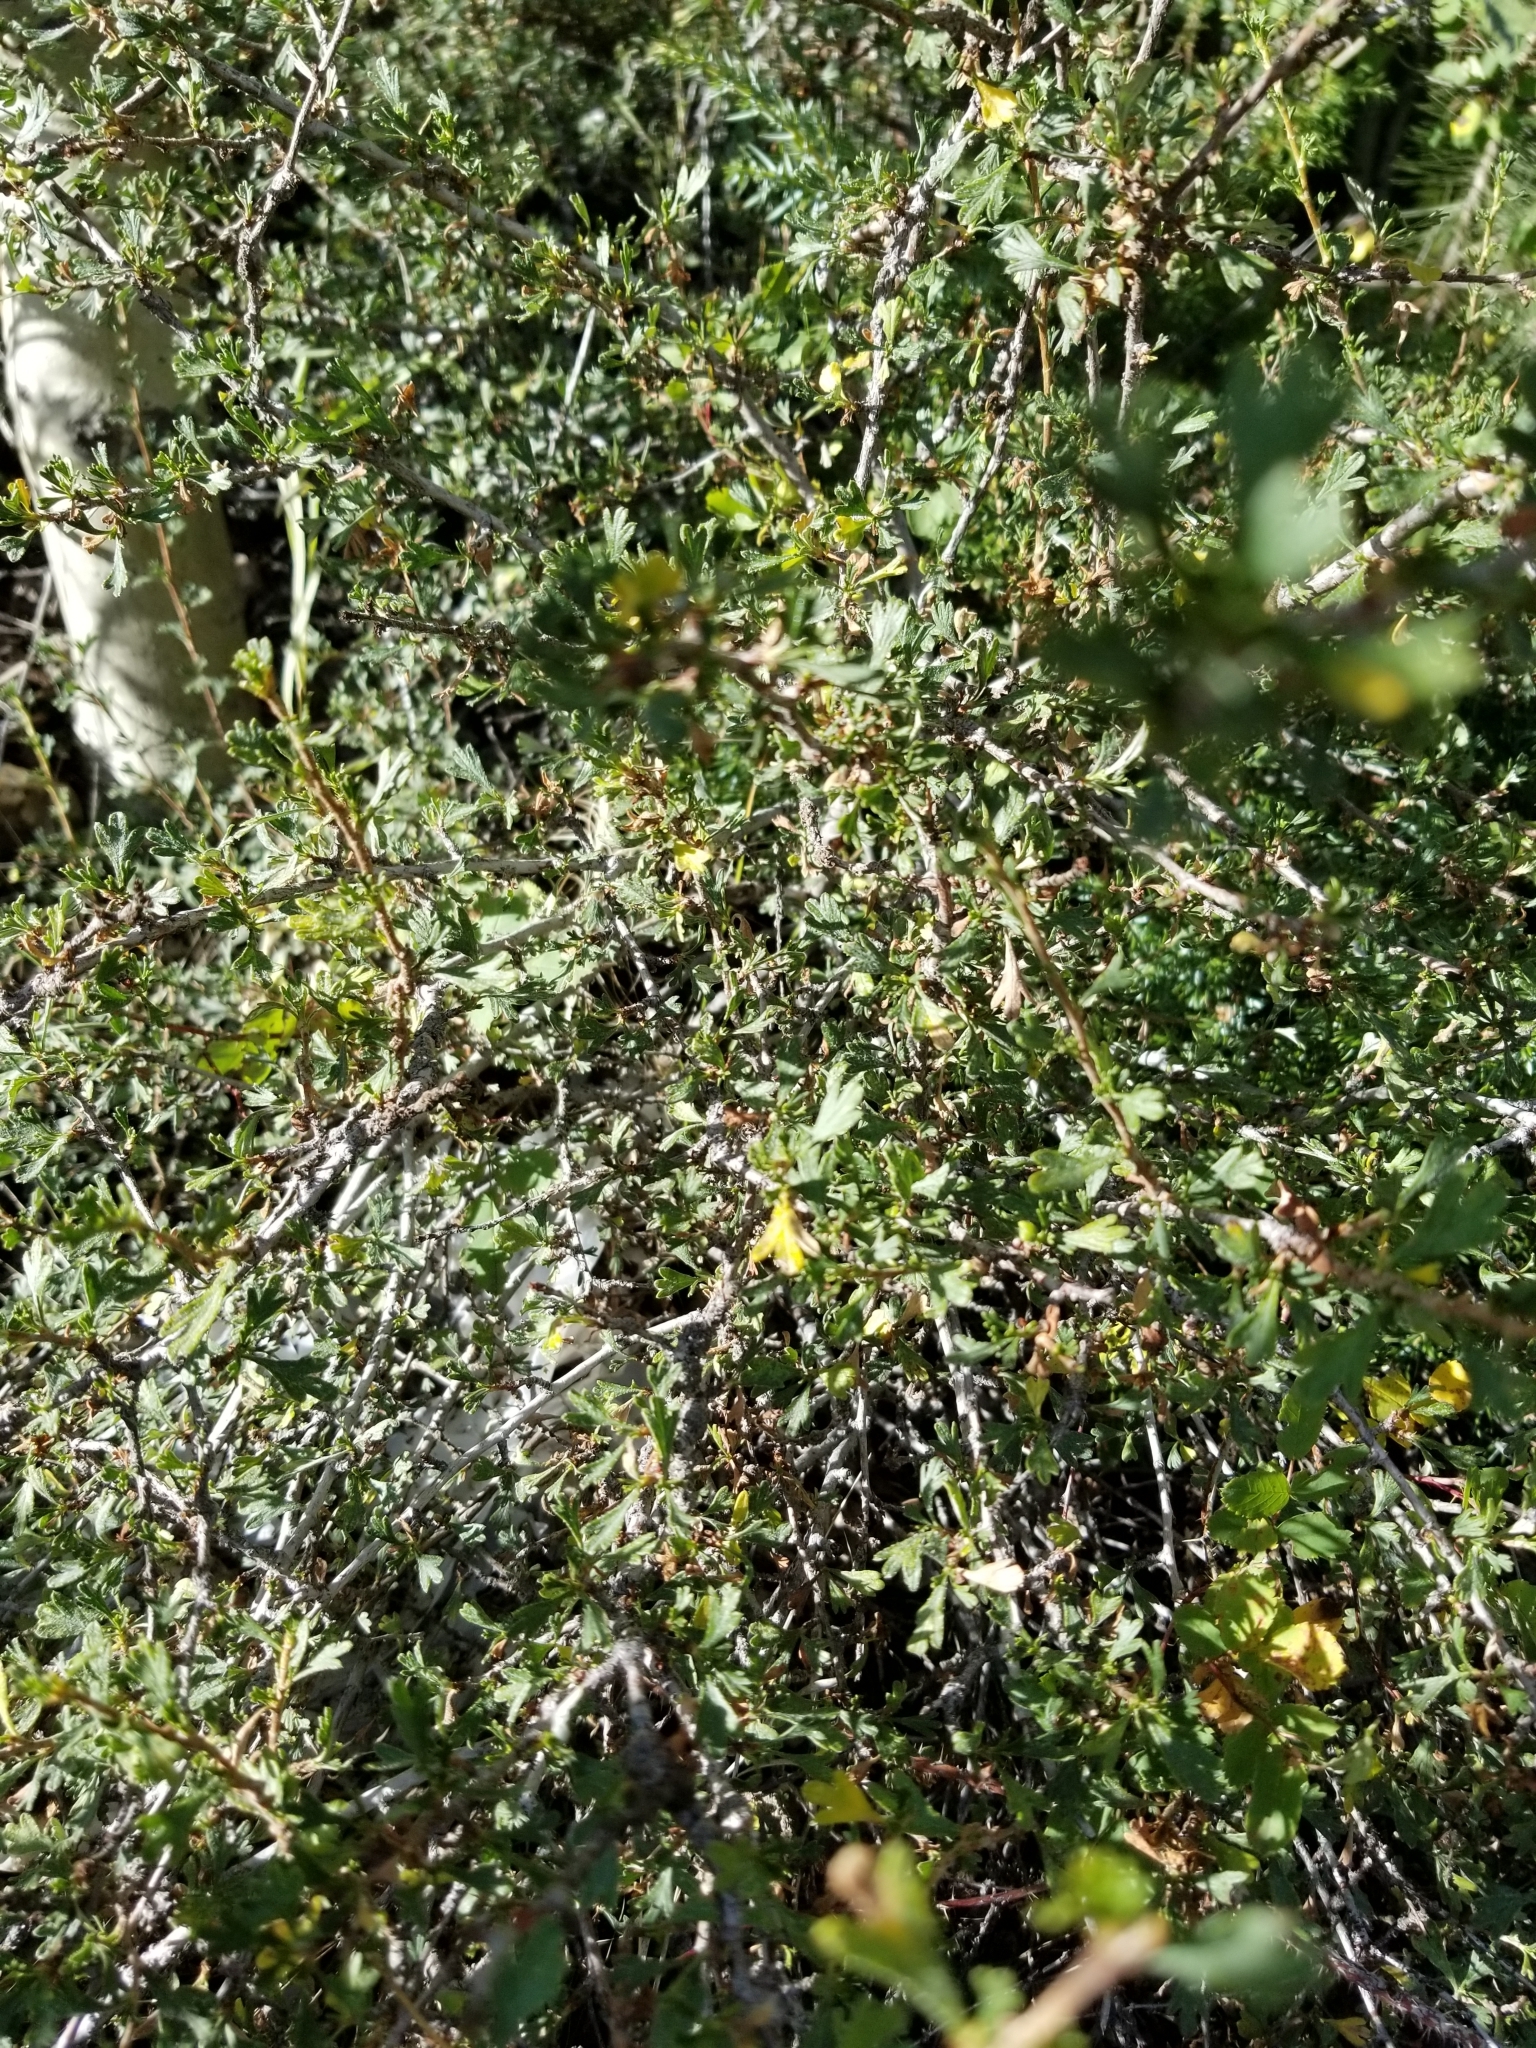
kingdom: Plantae
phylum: Tracheophyta
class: Magnoliopsida
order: Rosales
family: Rosaceae
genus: Purshia
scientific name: Purshia tridentata
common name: Antelope bitterbrush
